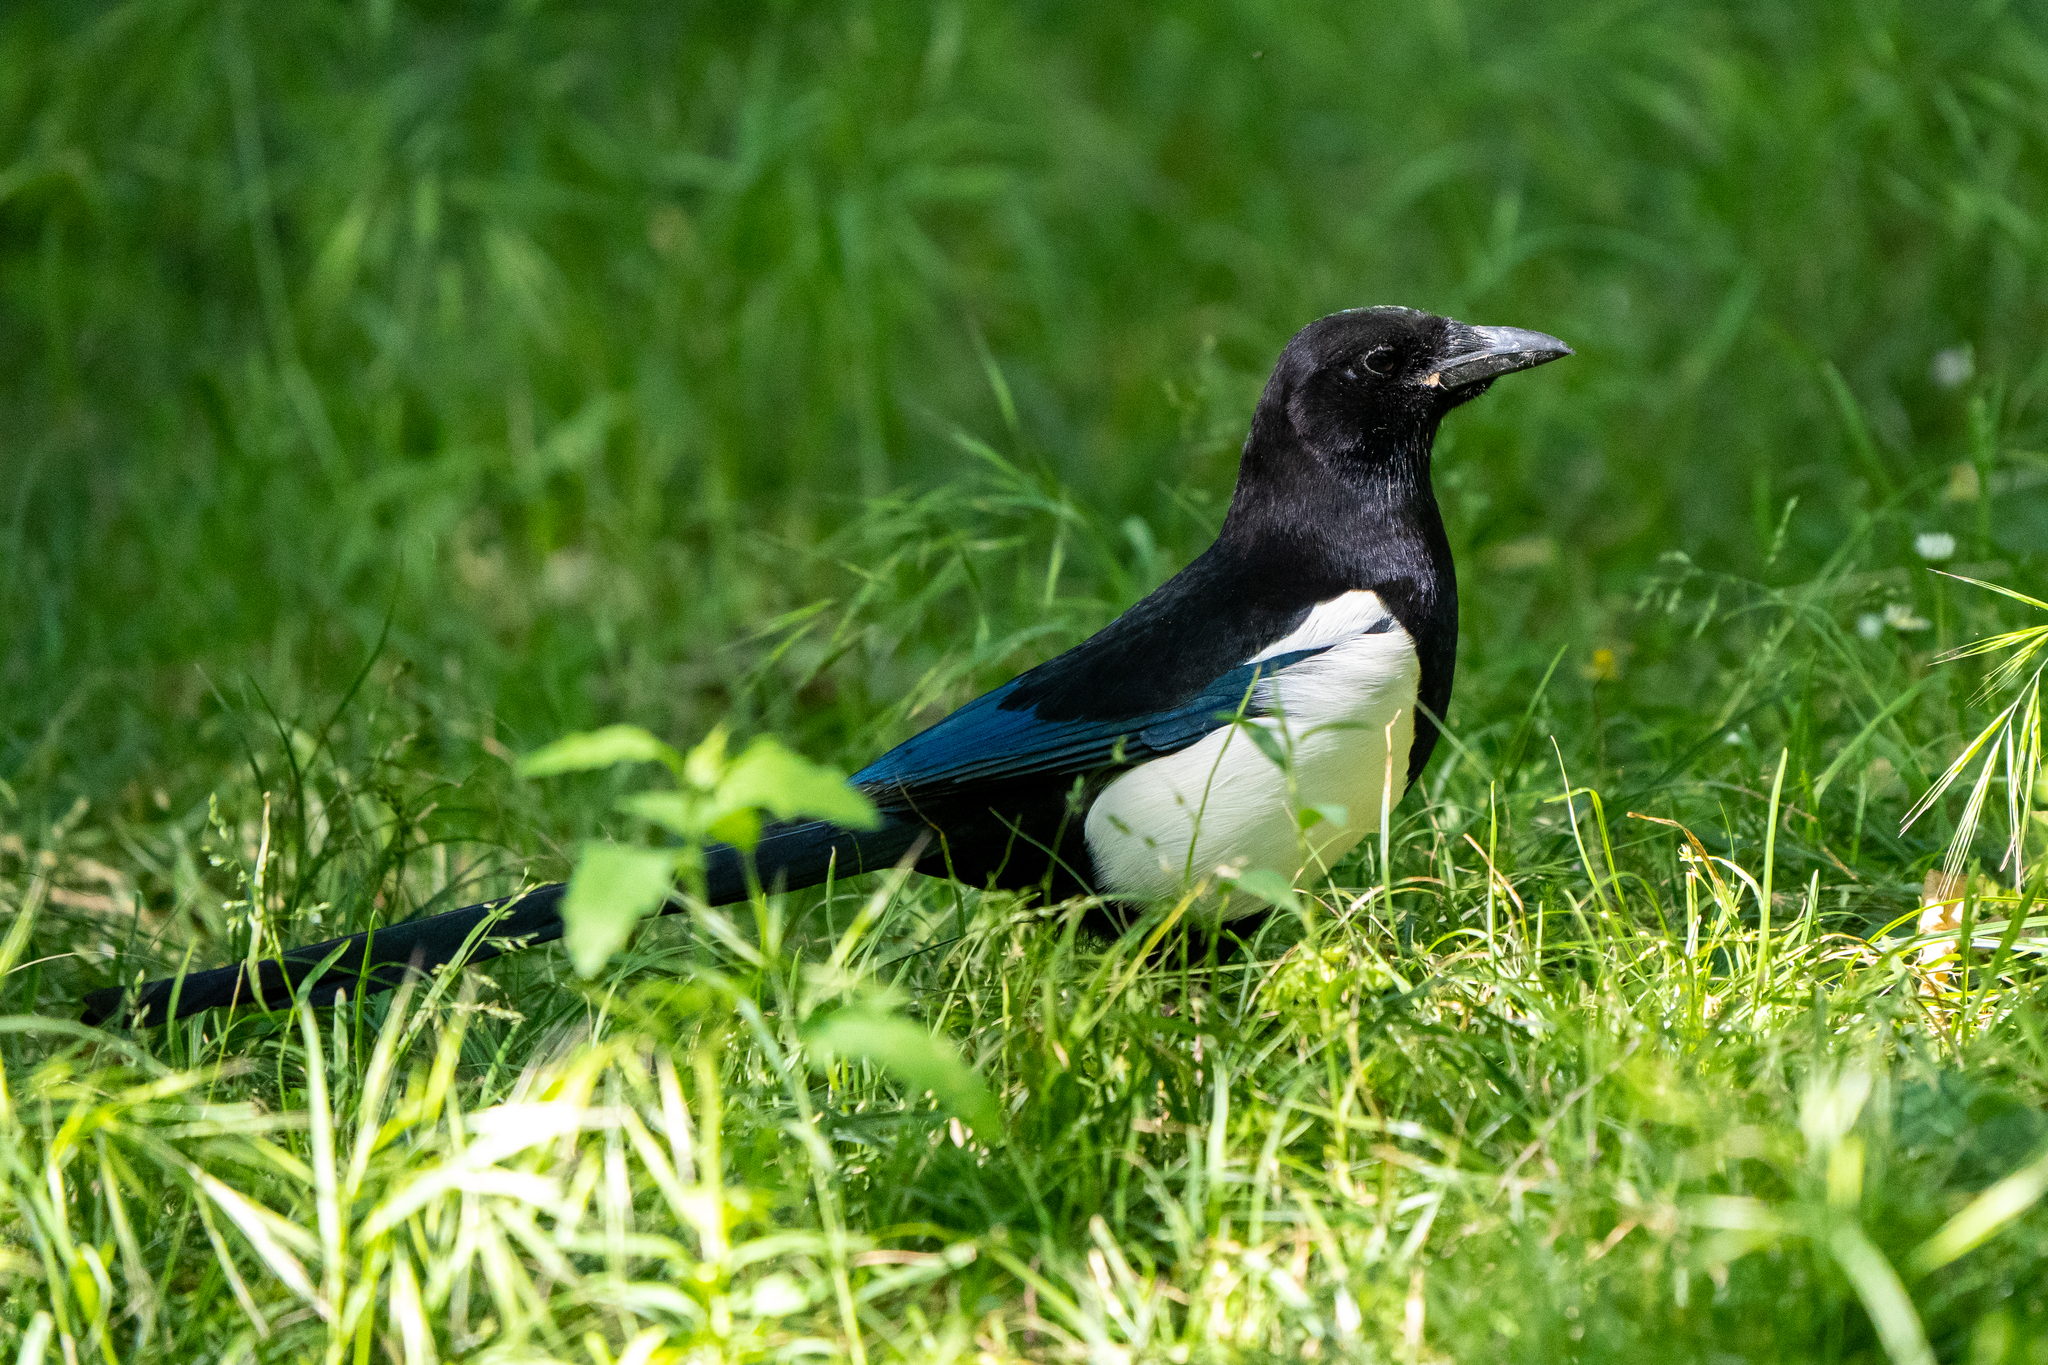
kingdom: Animalia
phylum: Chordata
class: Aves
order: Passeriformes
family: Corvidae
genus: Pica
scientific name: Pica pica
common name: Eurasian magpie
